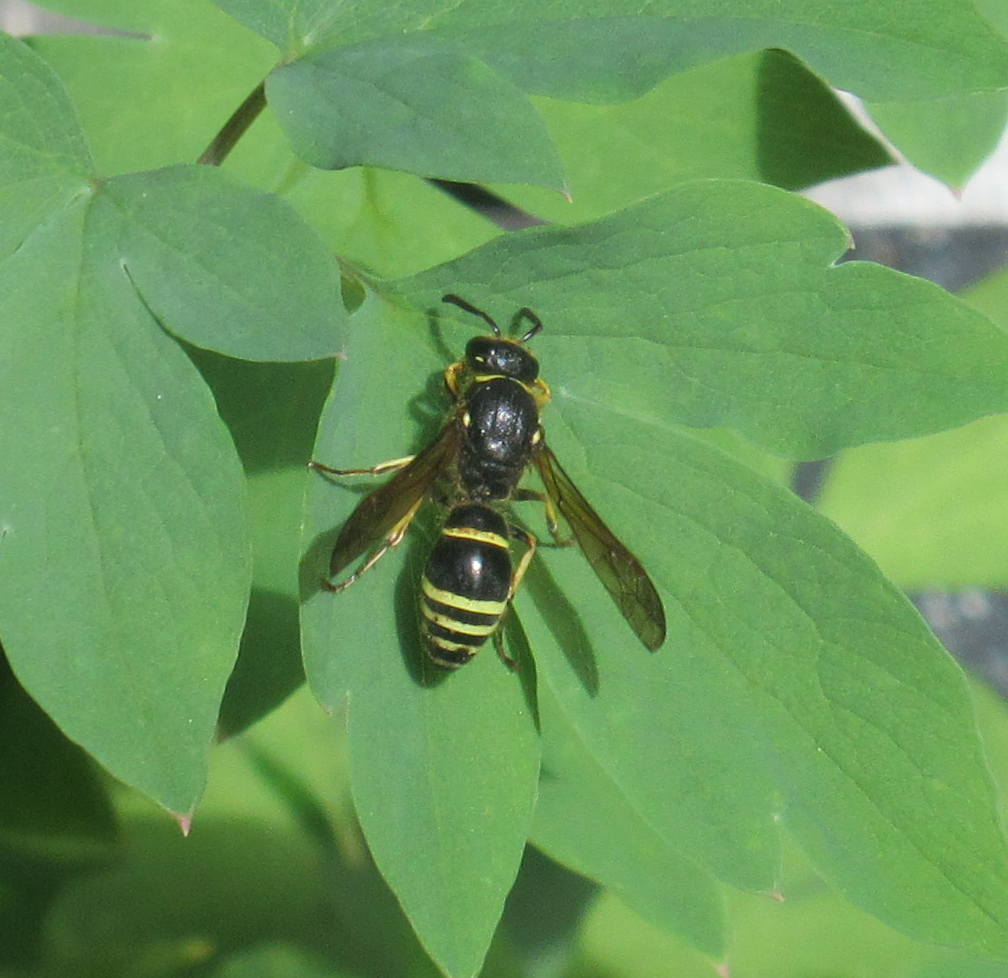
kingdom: Animalia
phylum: Arthropoda
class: Insecta
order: Hymenoptera
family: Vespidae
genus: Ancistrocerus
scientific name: Ancistrocerus
